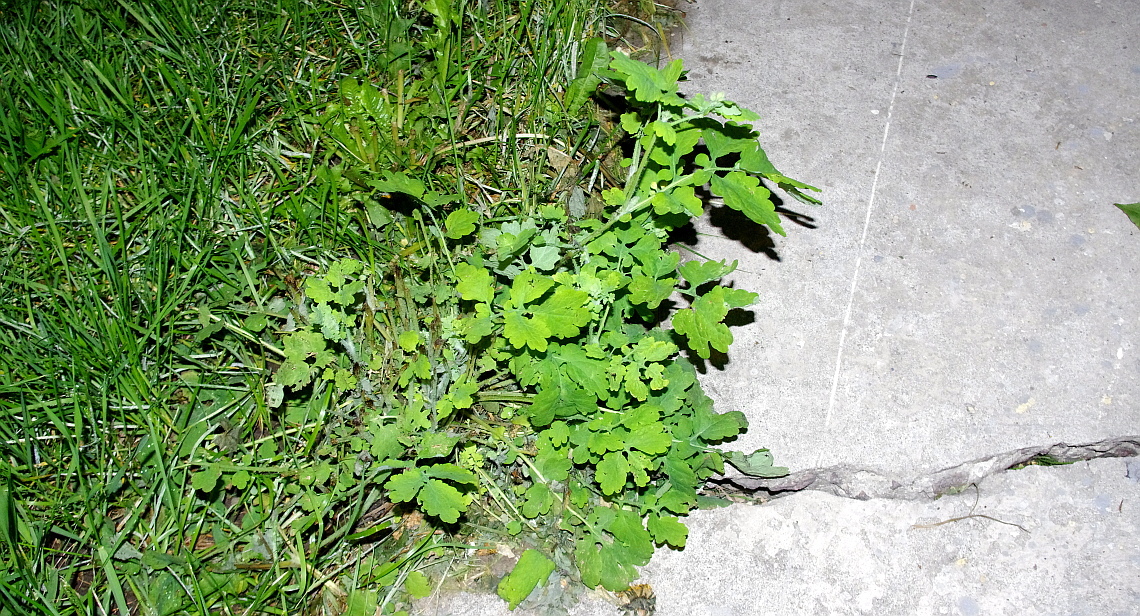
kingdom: Plantae
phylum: Tracheophyta
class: Magnoliopsida
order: Ranunculales
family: Papaveraceae
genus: Chelidonium
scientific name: Chelidonium majus
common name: Greater celandine
